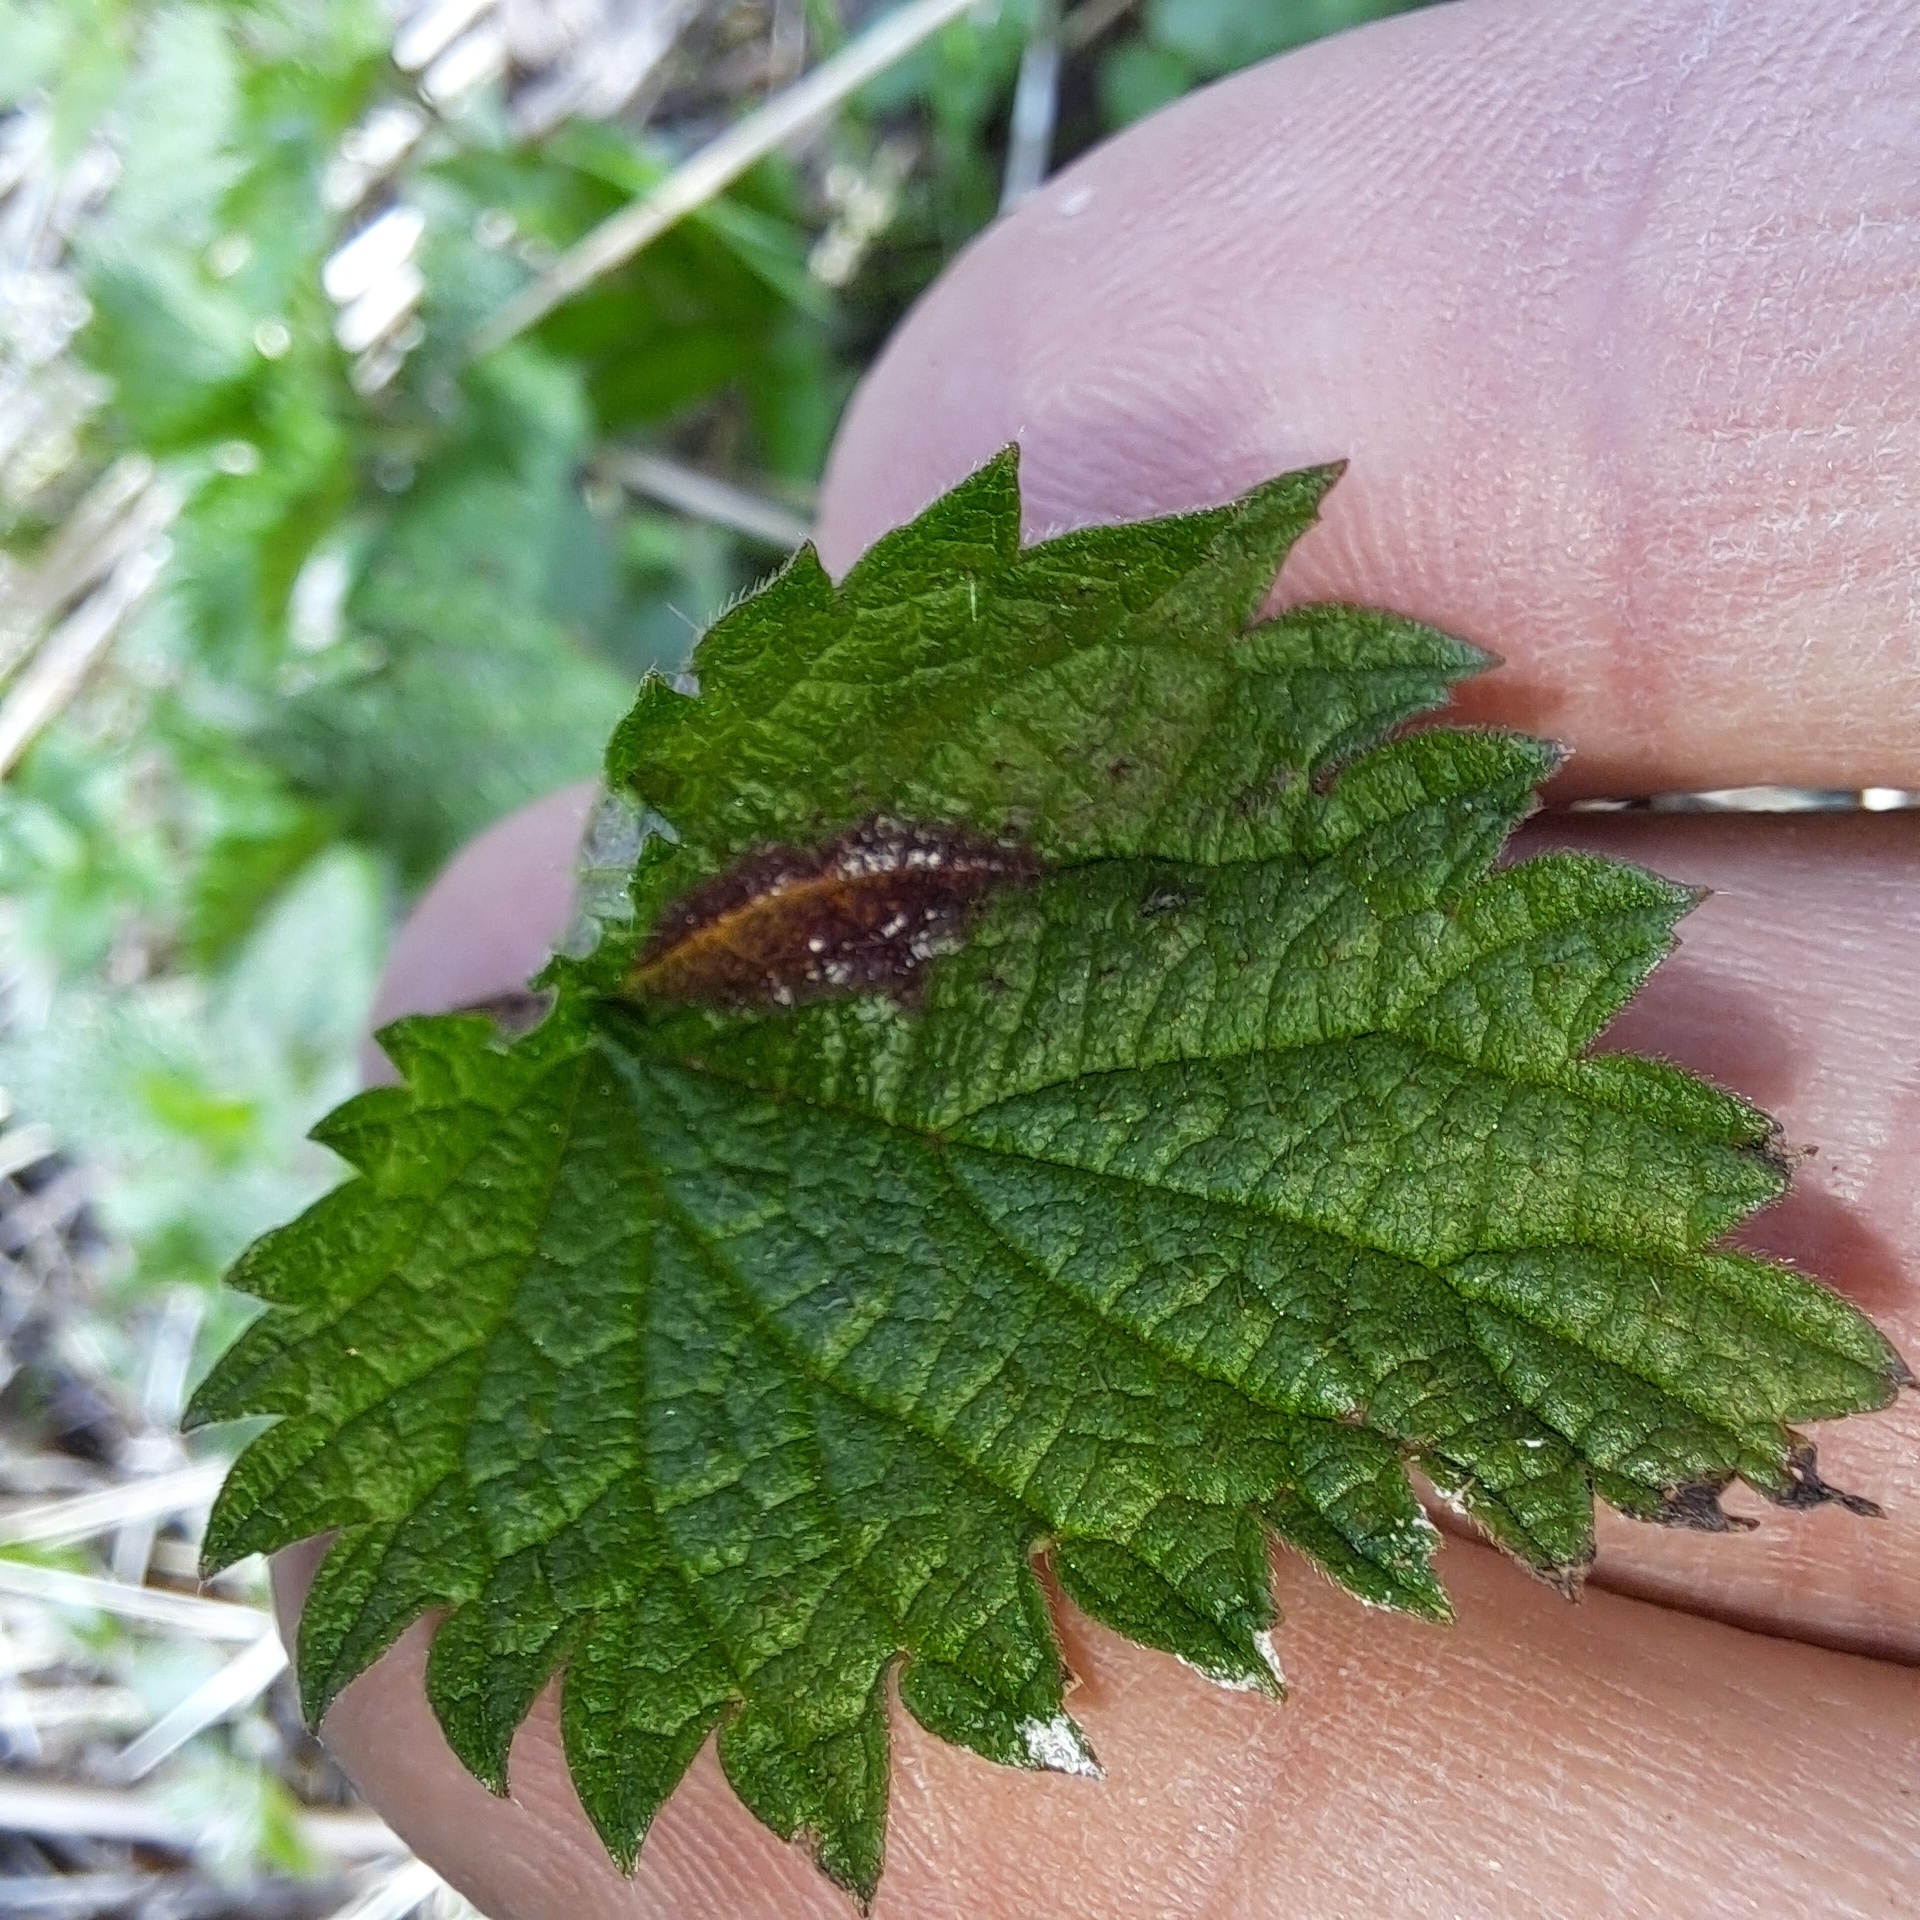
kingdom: Fungi
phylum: Basidiomycota
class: Pucciniomycetes
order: Pucciniales
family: Pucciniaceae
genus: Puccinia
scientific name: Puccinia urticata
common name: Nettle clustercup rust fungus
